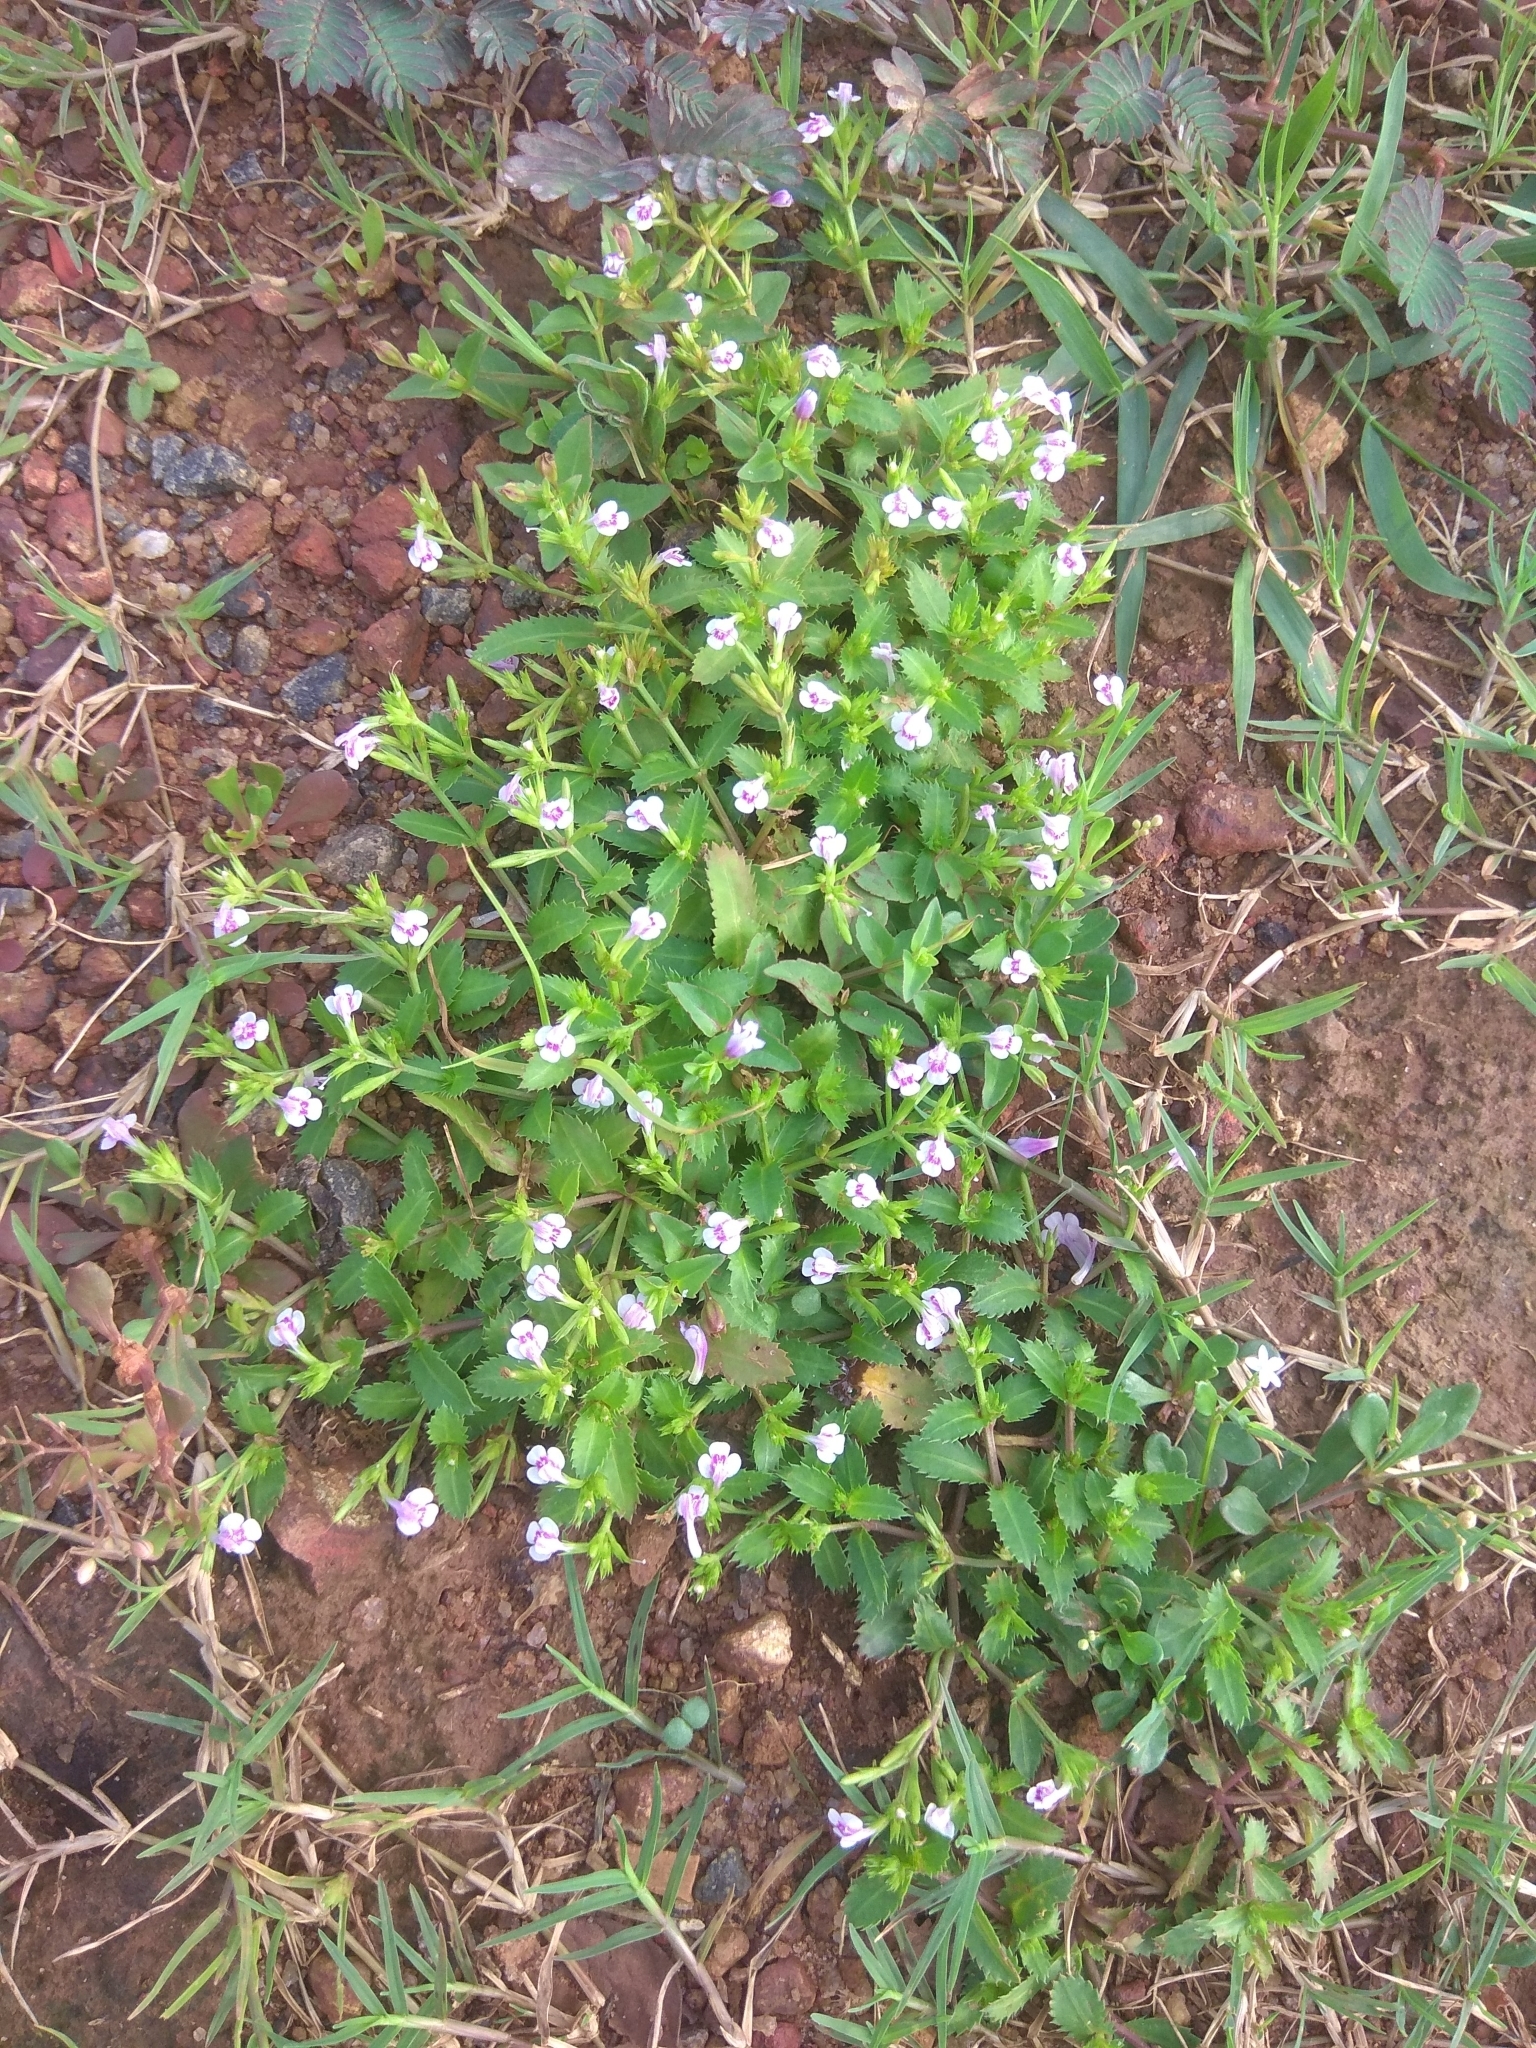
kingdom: Plantae
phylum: Tracheophyta
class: Magnoliopsida
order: Lamiales
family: Linderniaceae
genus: Bonnaya
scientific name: Bonnaya ciliata
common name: Hairy slitwort
